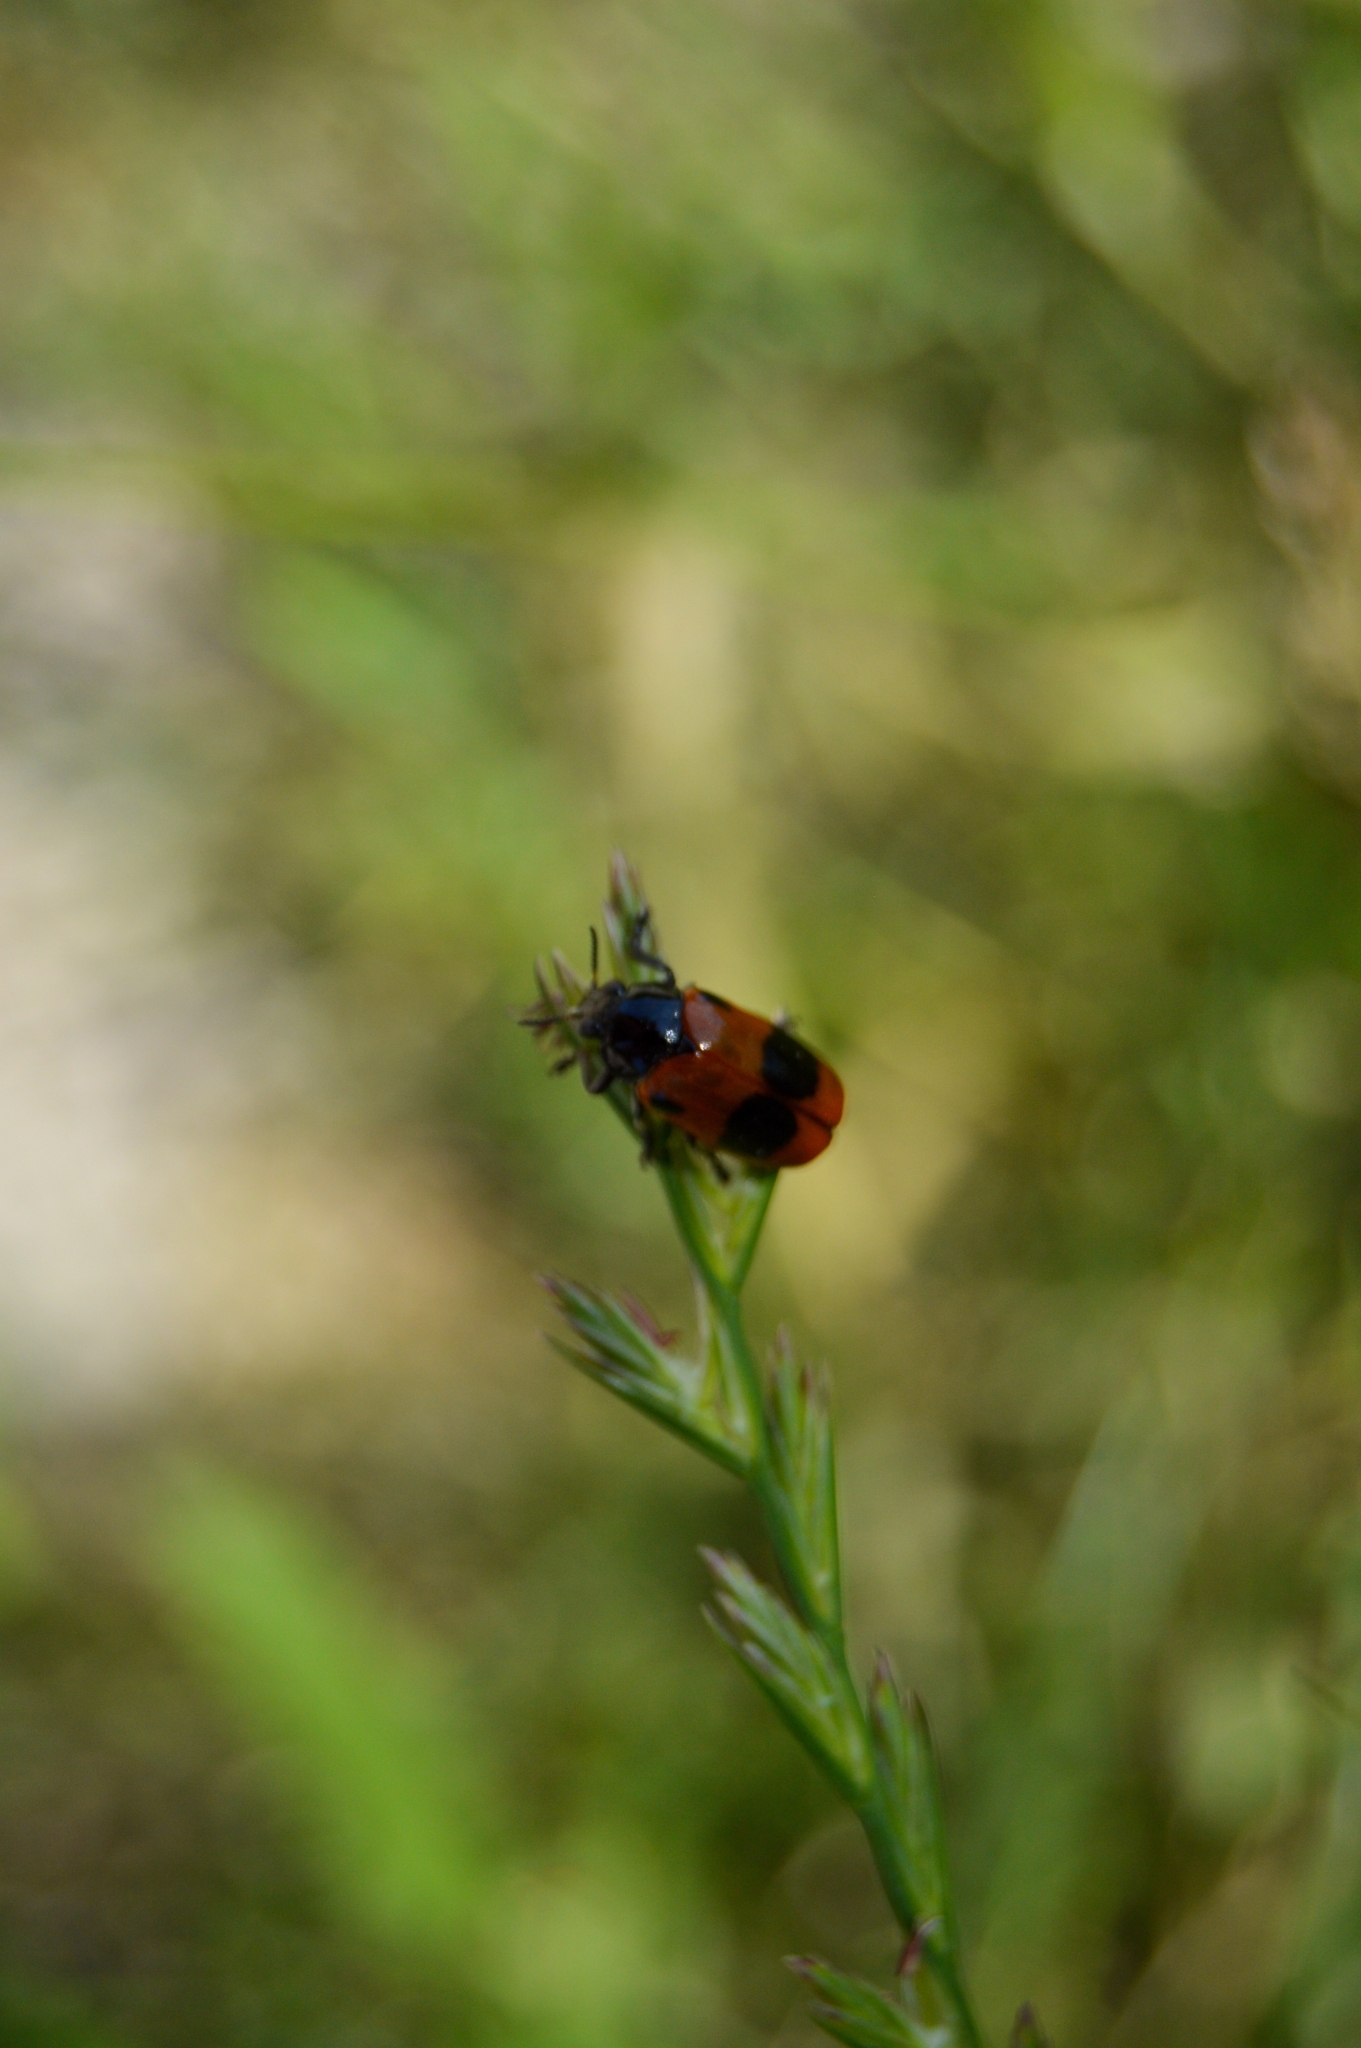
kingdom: Animalia
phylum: Arthropoda
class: Insecta
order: Coleoptera
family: Chrysomelidae
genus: Clytra
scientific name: Clytra laeviuscula
